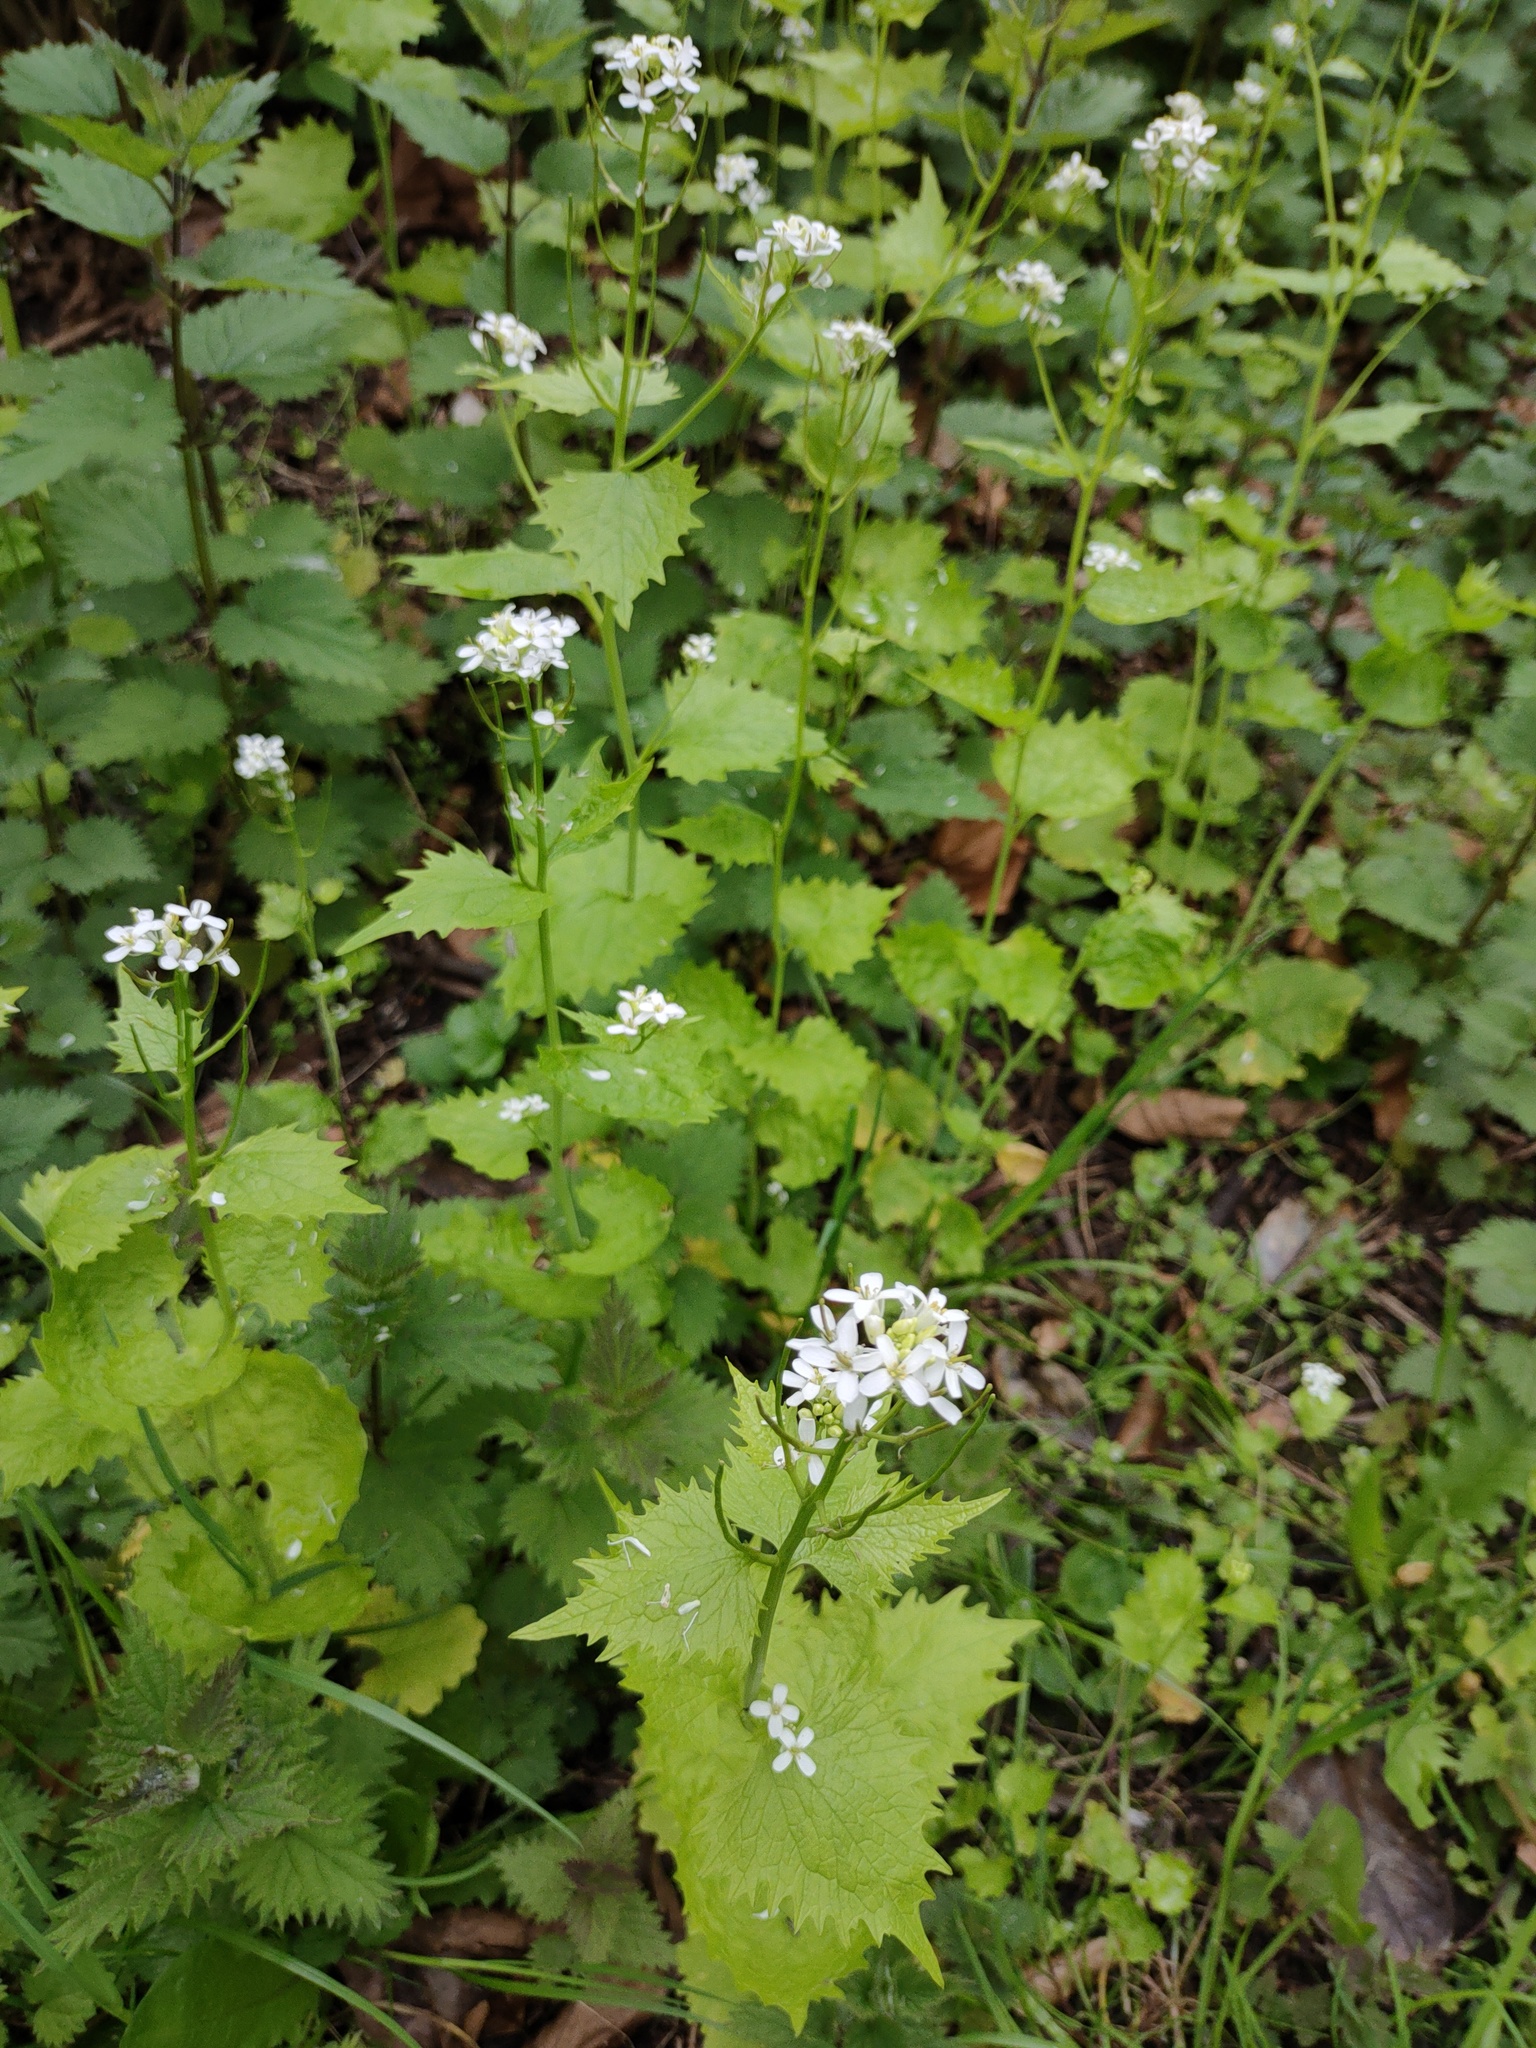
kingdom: Plantae
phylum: Tracheophyta
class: Magnoliopsida
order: Brassicales
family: Brassicaceae
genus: Alliaria
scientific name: Alliaria petiolata
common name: Garlic mustard
